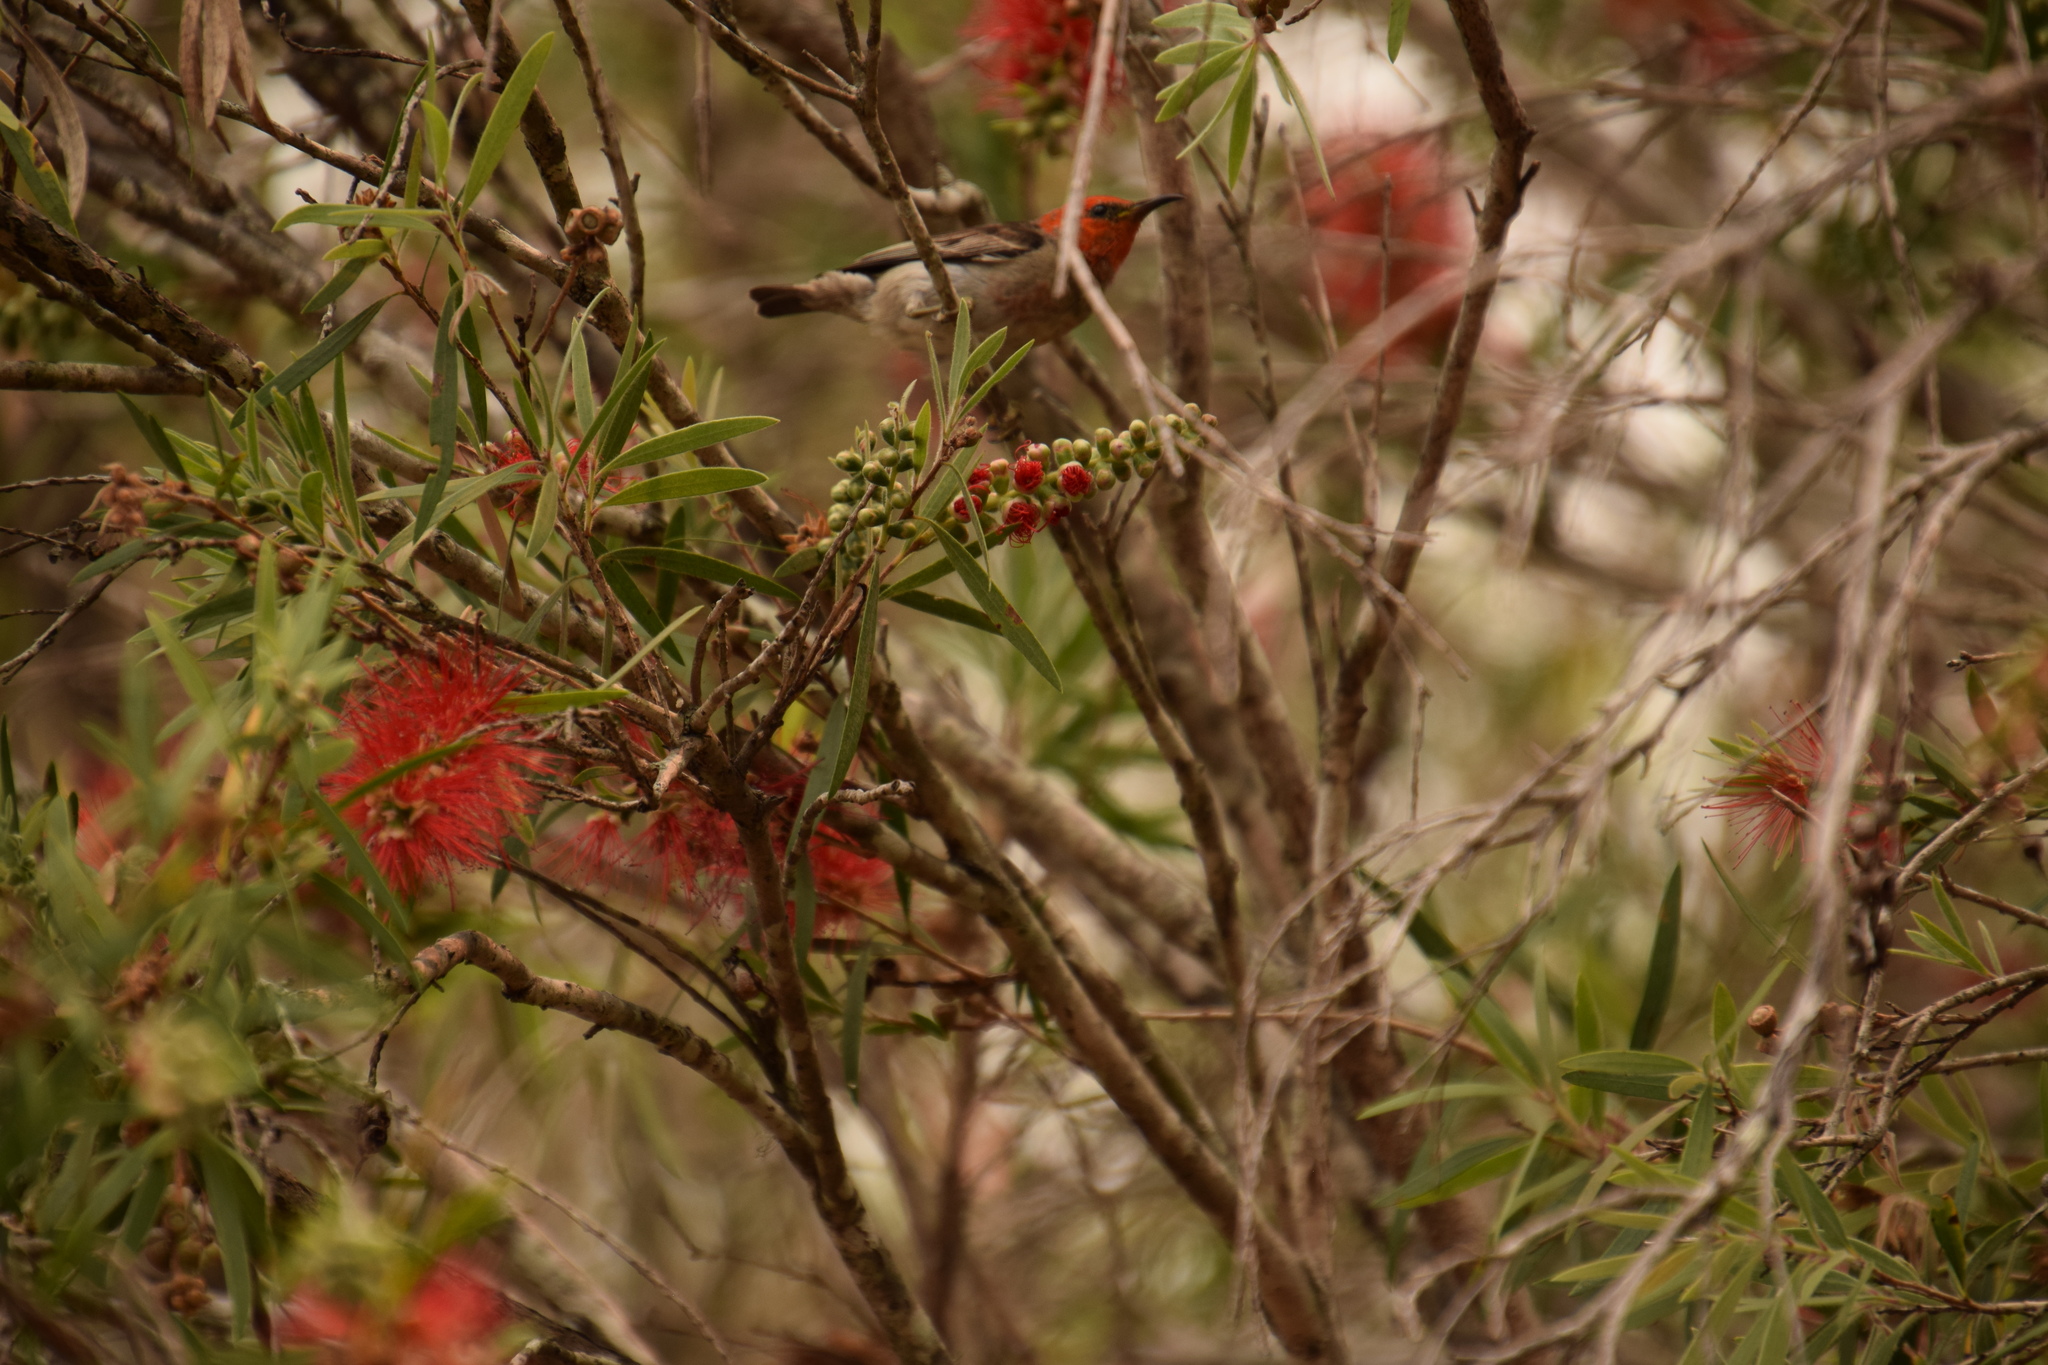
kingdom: Animalia
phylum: Chordata
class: Aves
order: Passeriformes
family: Meliphagidae
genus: Myzomela
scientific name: Myzomela sanguinolenta
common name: Scarlet myzomela
